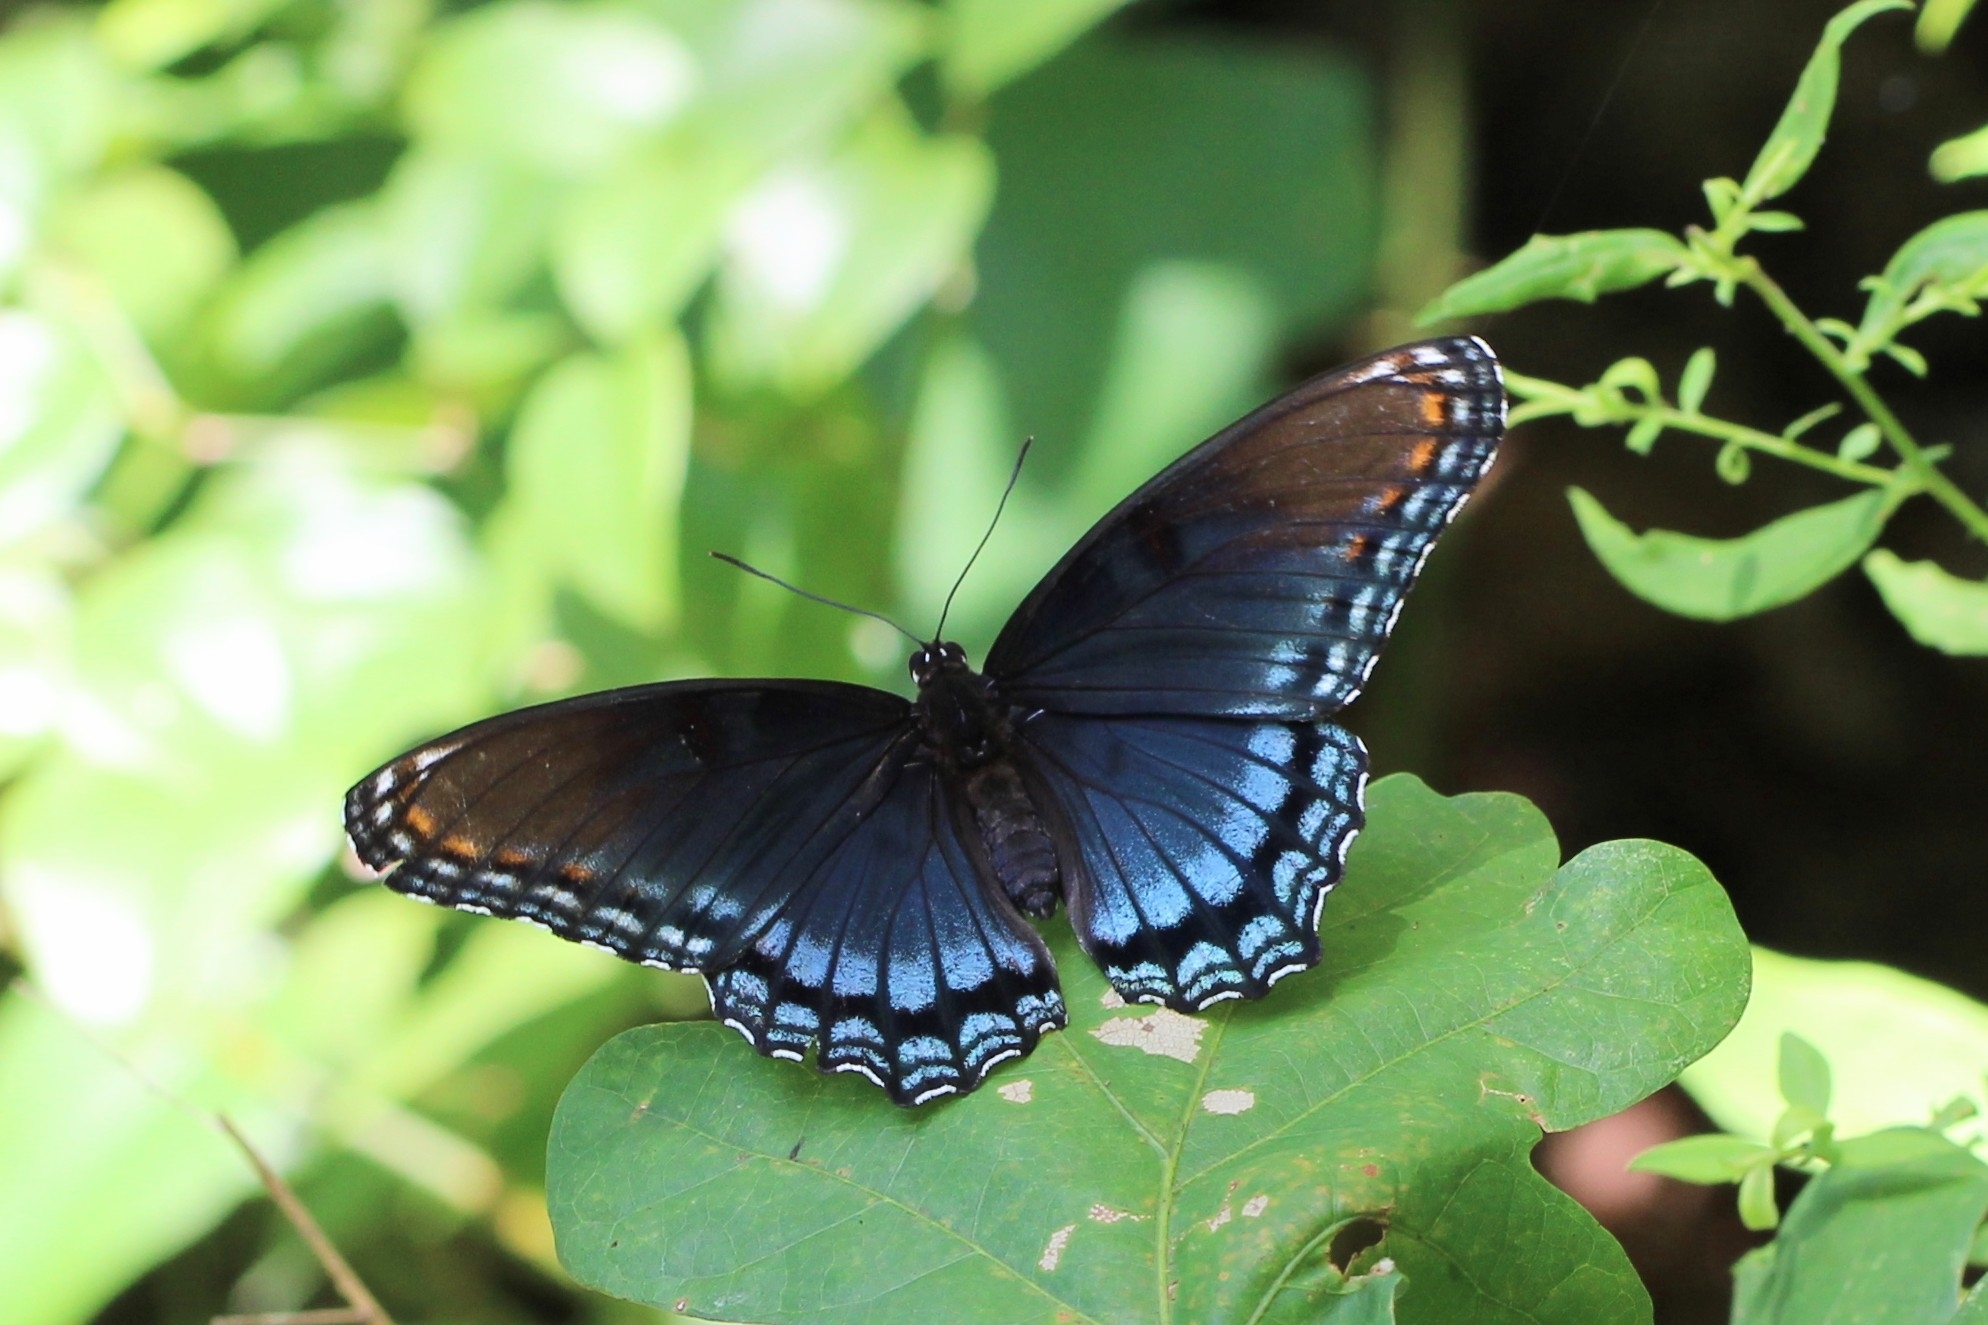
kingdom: Animalia
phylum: Arthropoda
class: Insecta
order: Lepidoptera
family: Nymphalidae
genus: Limenitis
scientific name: Limenitis astyanax
